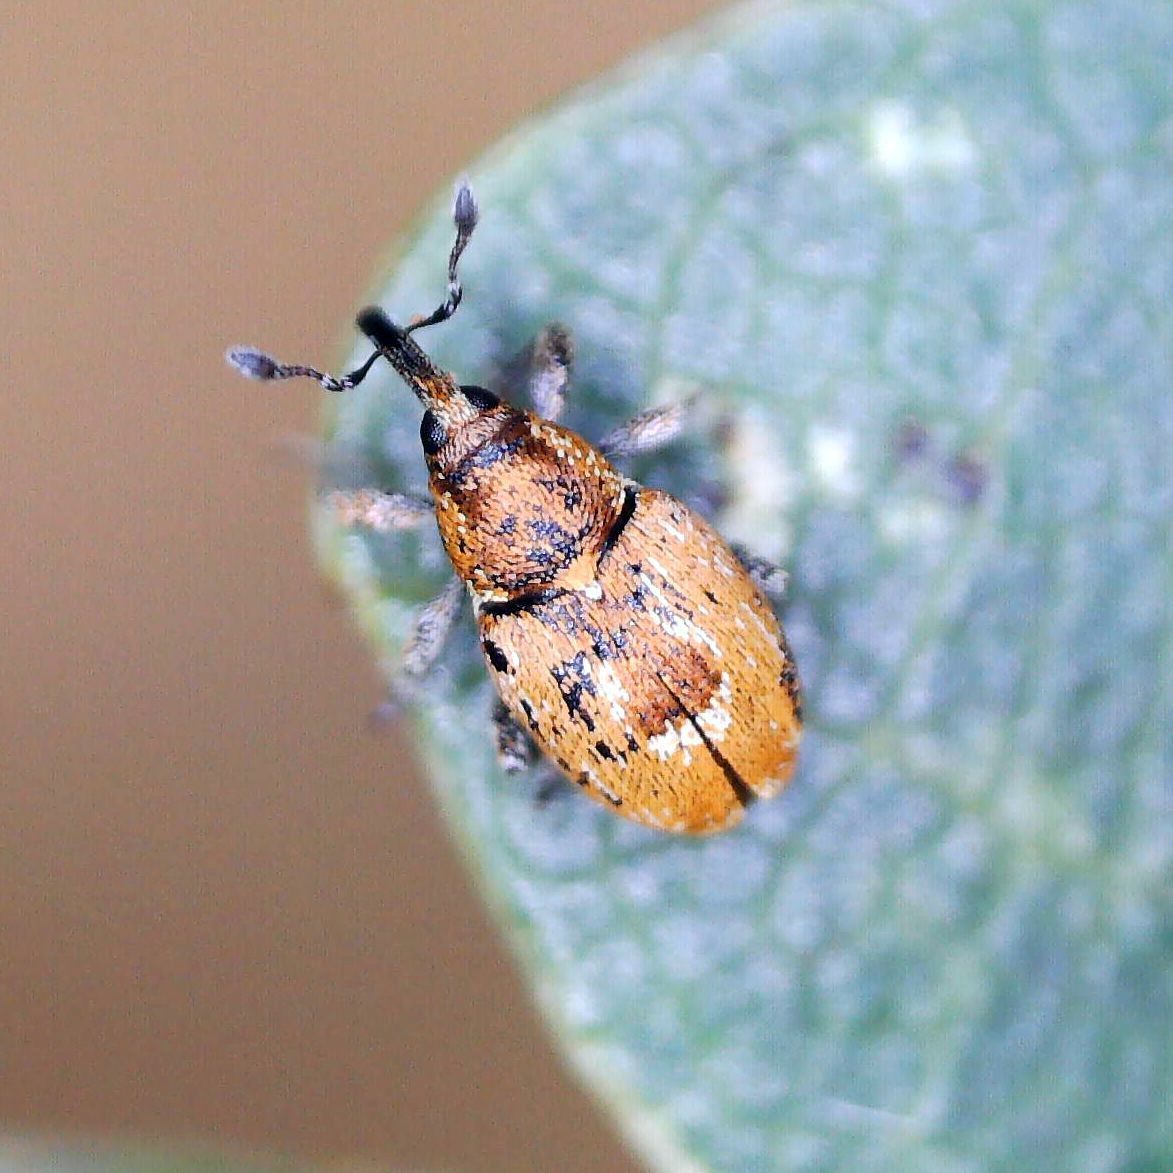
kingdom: Animalia
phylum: Arthropoda
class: Insecta
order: Coleoptera
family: Curculionidae
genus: Sibinia
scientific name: Sibinia primita
